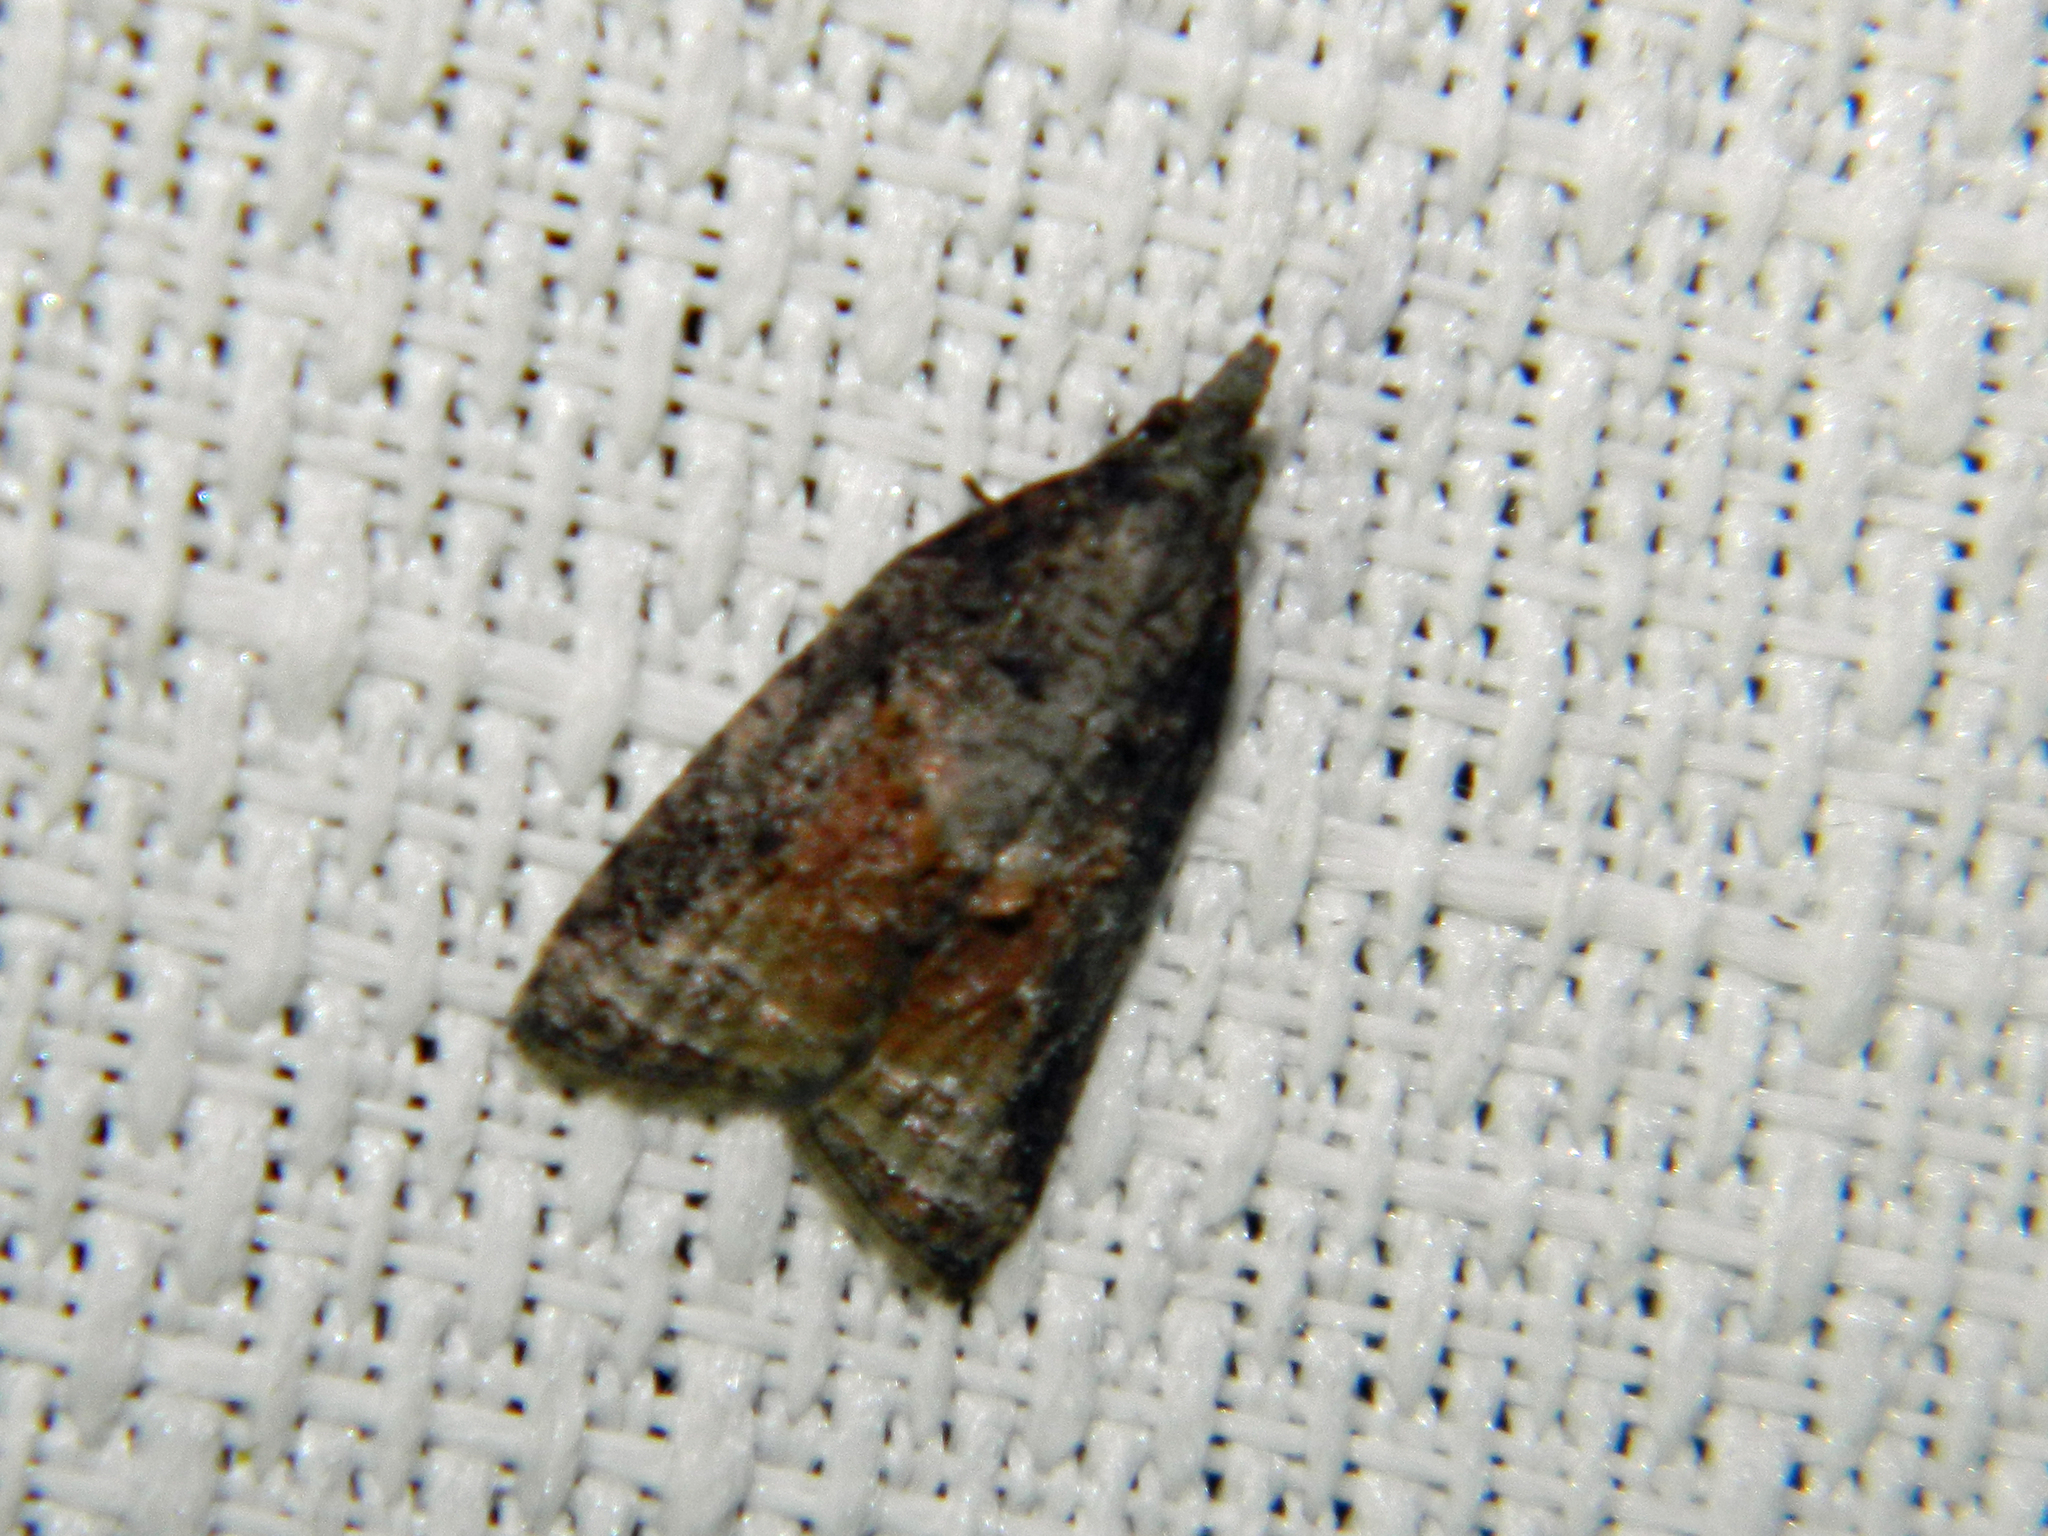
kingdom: Animalia
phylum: Arthropoda
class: Insecta
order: Lepidoptera
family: Tortricidae
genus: Platynota
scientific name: Platynota idaeusalis
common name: Tufted apple bud moth
